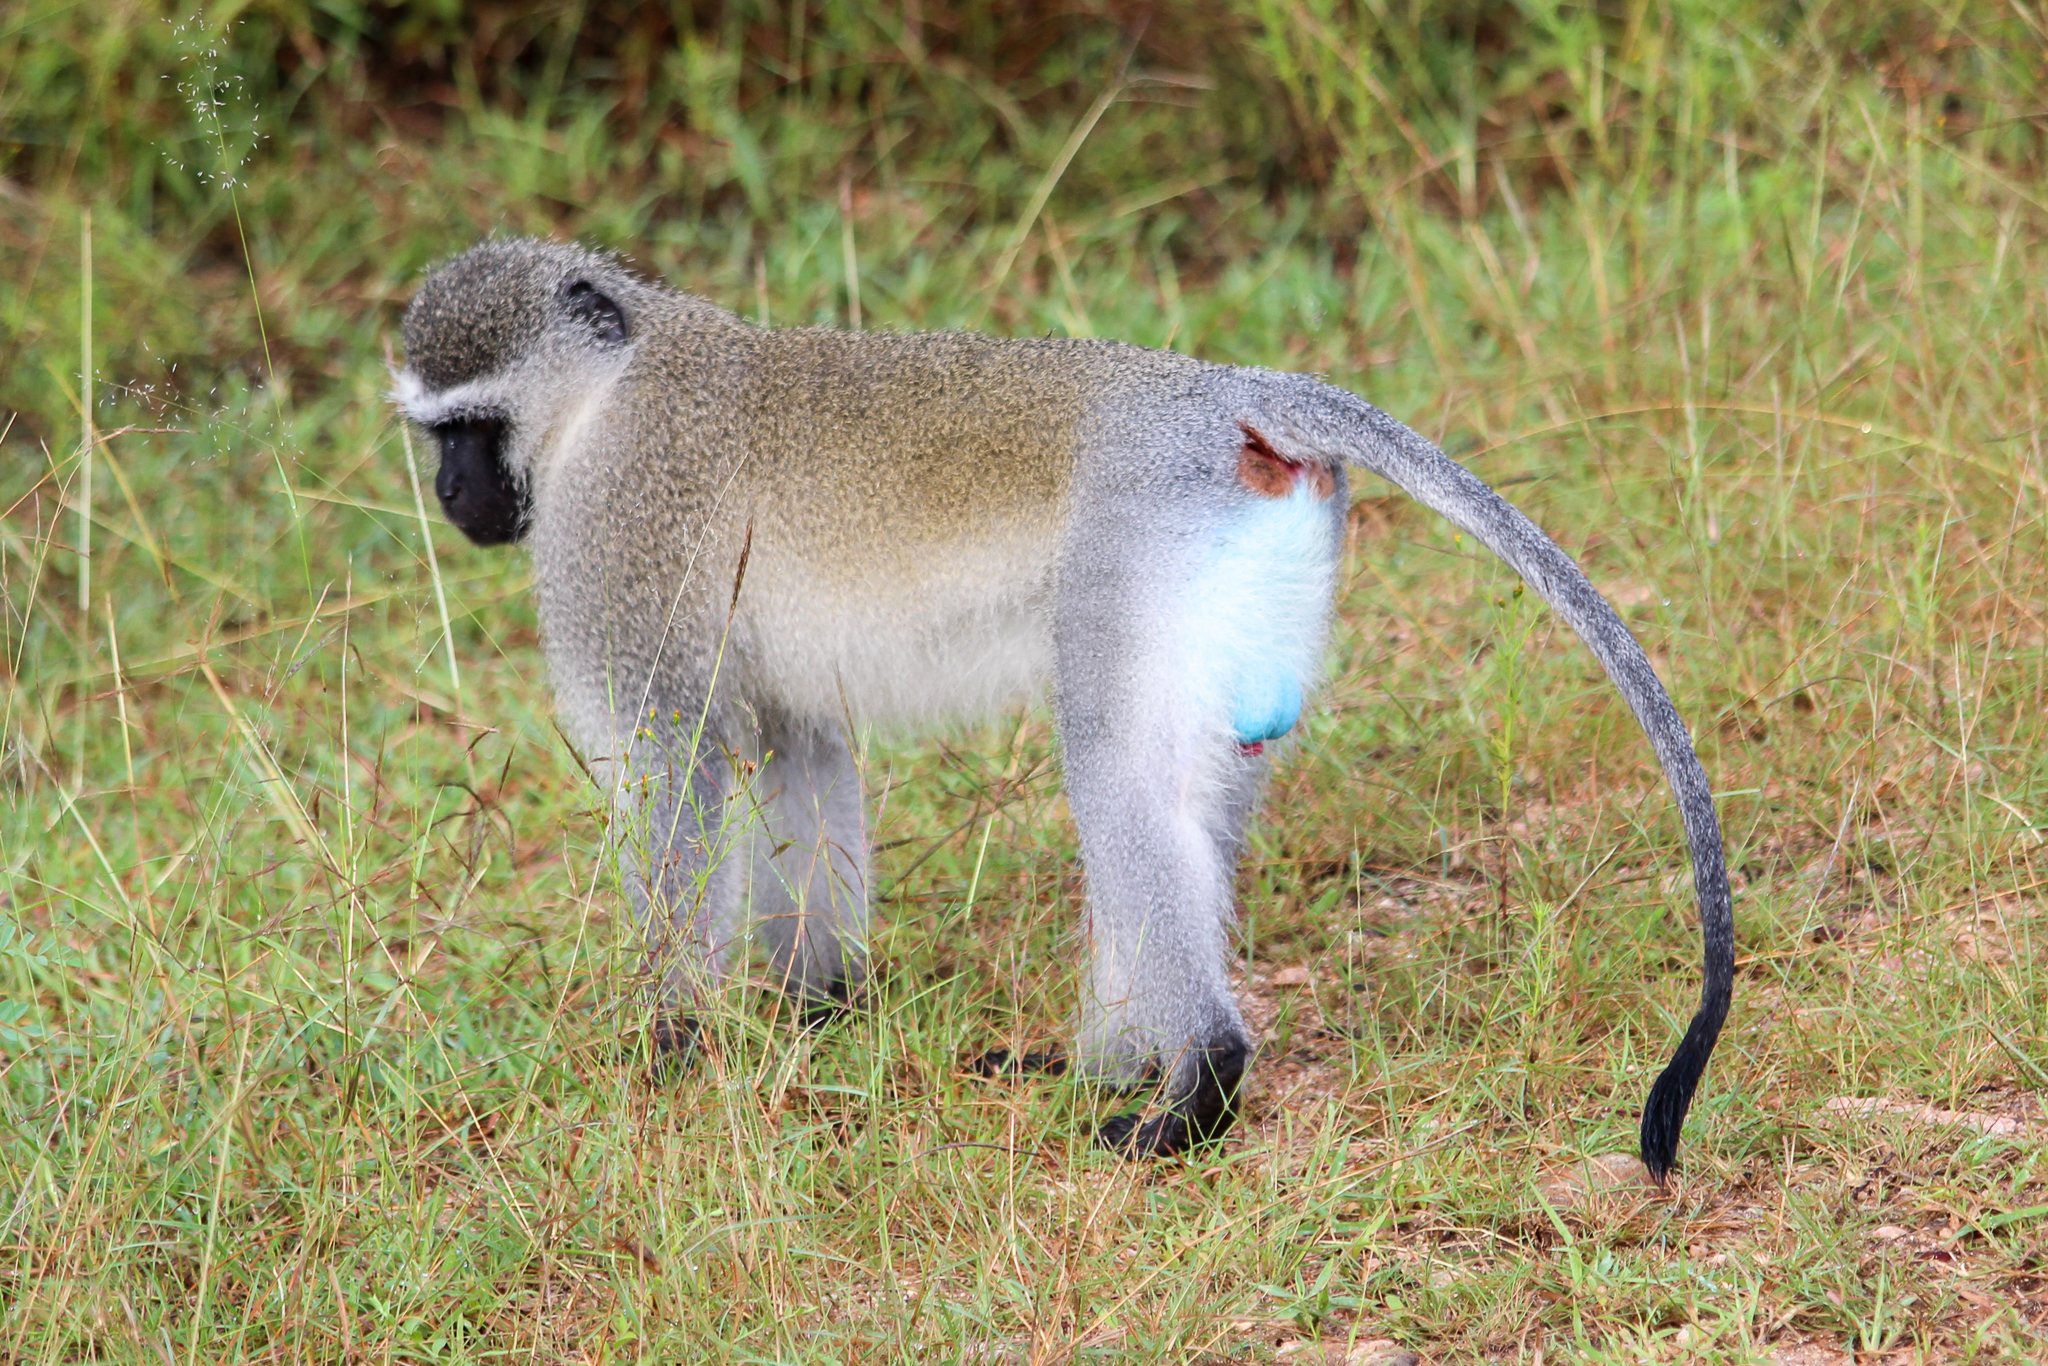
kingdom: Animalia
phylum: Chordata
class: Mammalia
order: Primates
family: Cercopithecidae
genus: Chlorocebus
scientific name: Chlorocebus pygerythrus
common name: Vervet monkey
